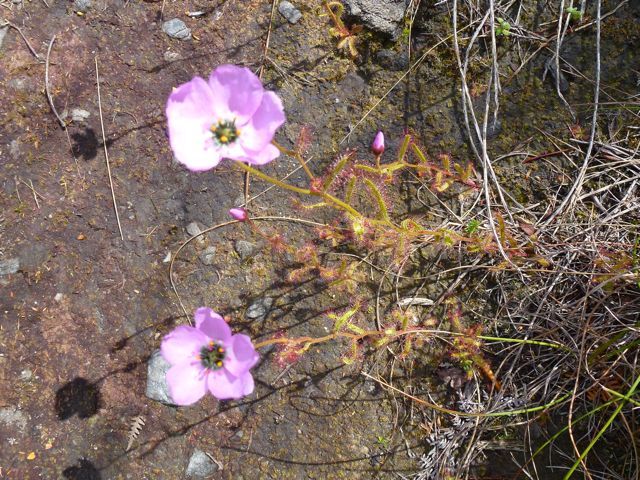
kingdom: Plantae
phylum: Tracheophyta
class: Magnoliopsida
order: Caryophyllales
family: Droseraceae
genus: Drosera
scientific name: Drosera cistiflora
